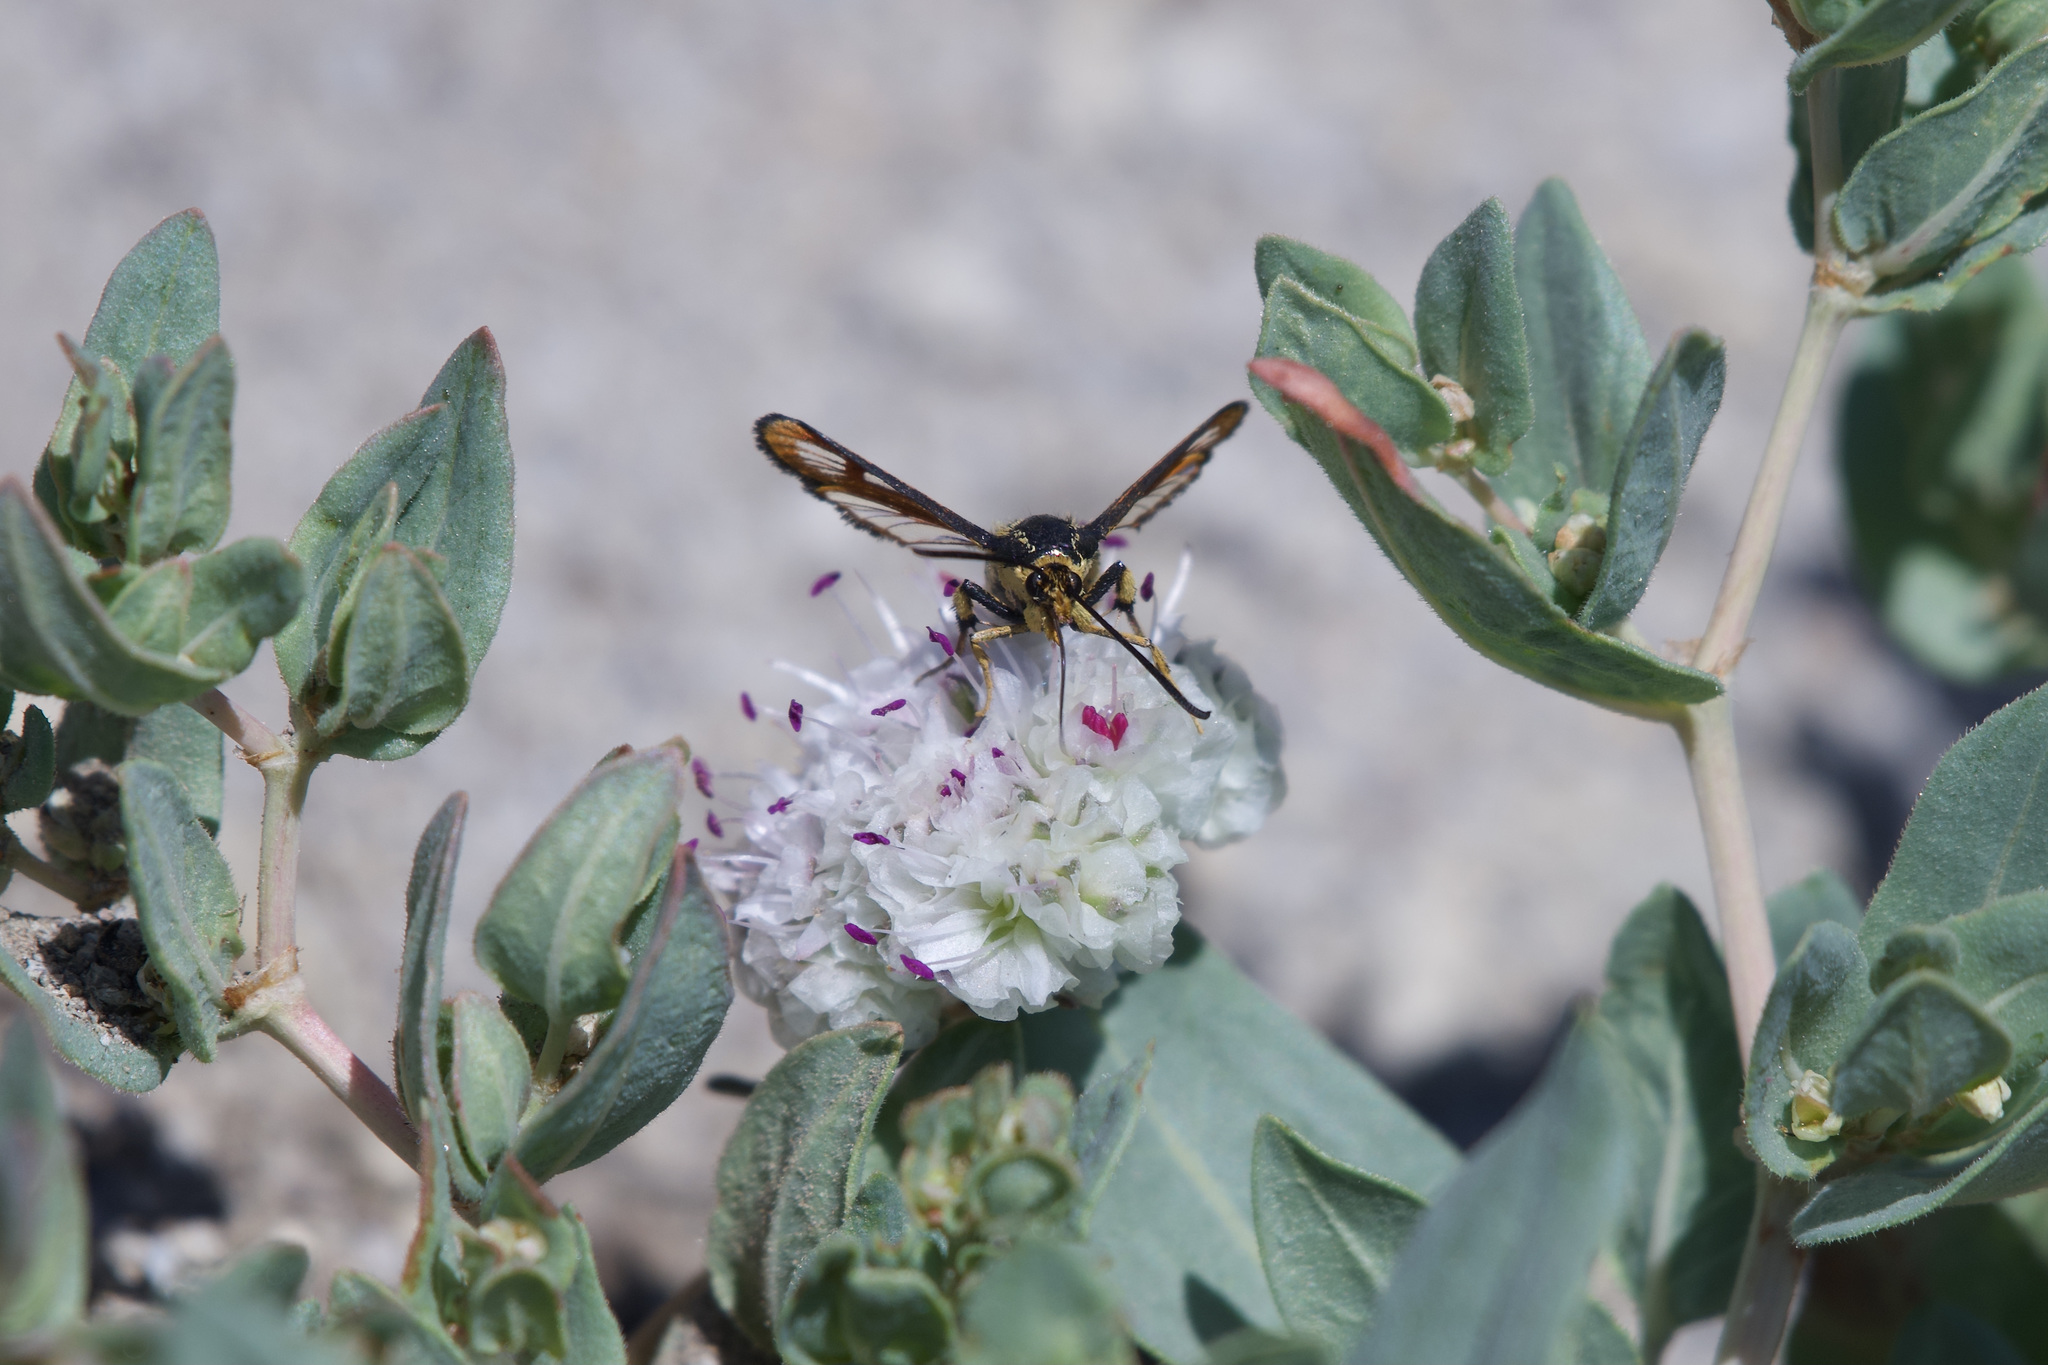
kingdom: Animalia
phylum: Arthropoda
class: Insecta
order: Lepidoptera
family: Sesiidae
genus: Synanthedon
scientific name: Synanthedon chrysidipennis
